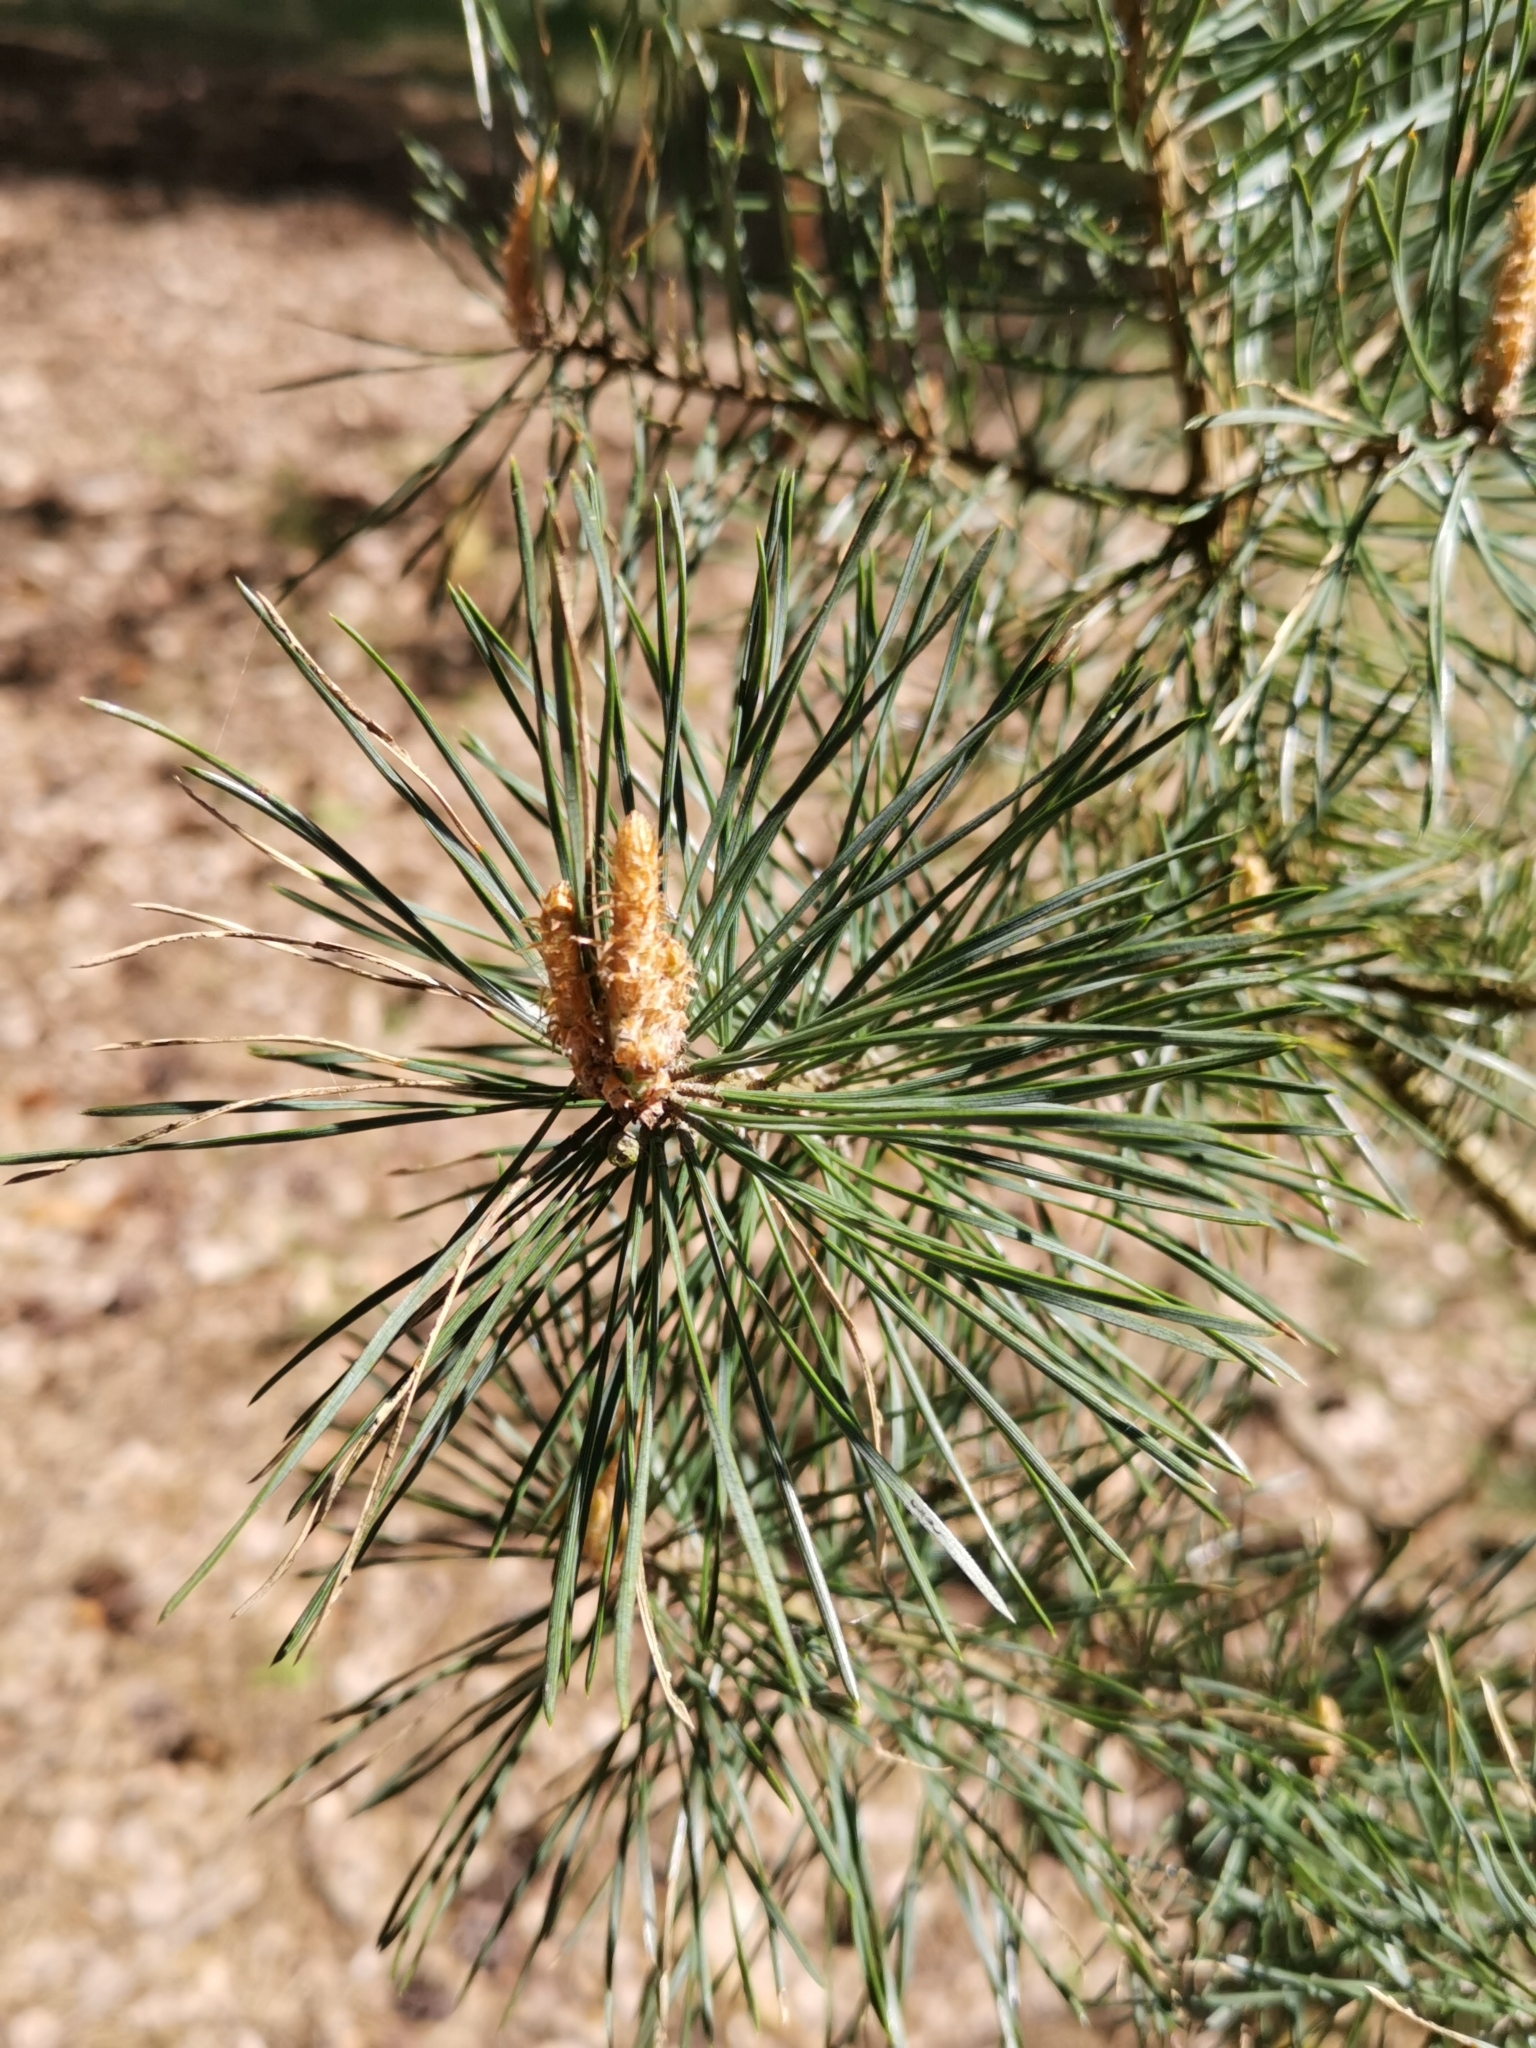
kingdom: Plantae
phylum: Tracheophyta
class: Pinopsida
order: Pinales
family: Pinaceae
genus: Pinus
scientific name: Pinus sylvestris
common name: Scots pine
